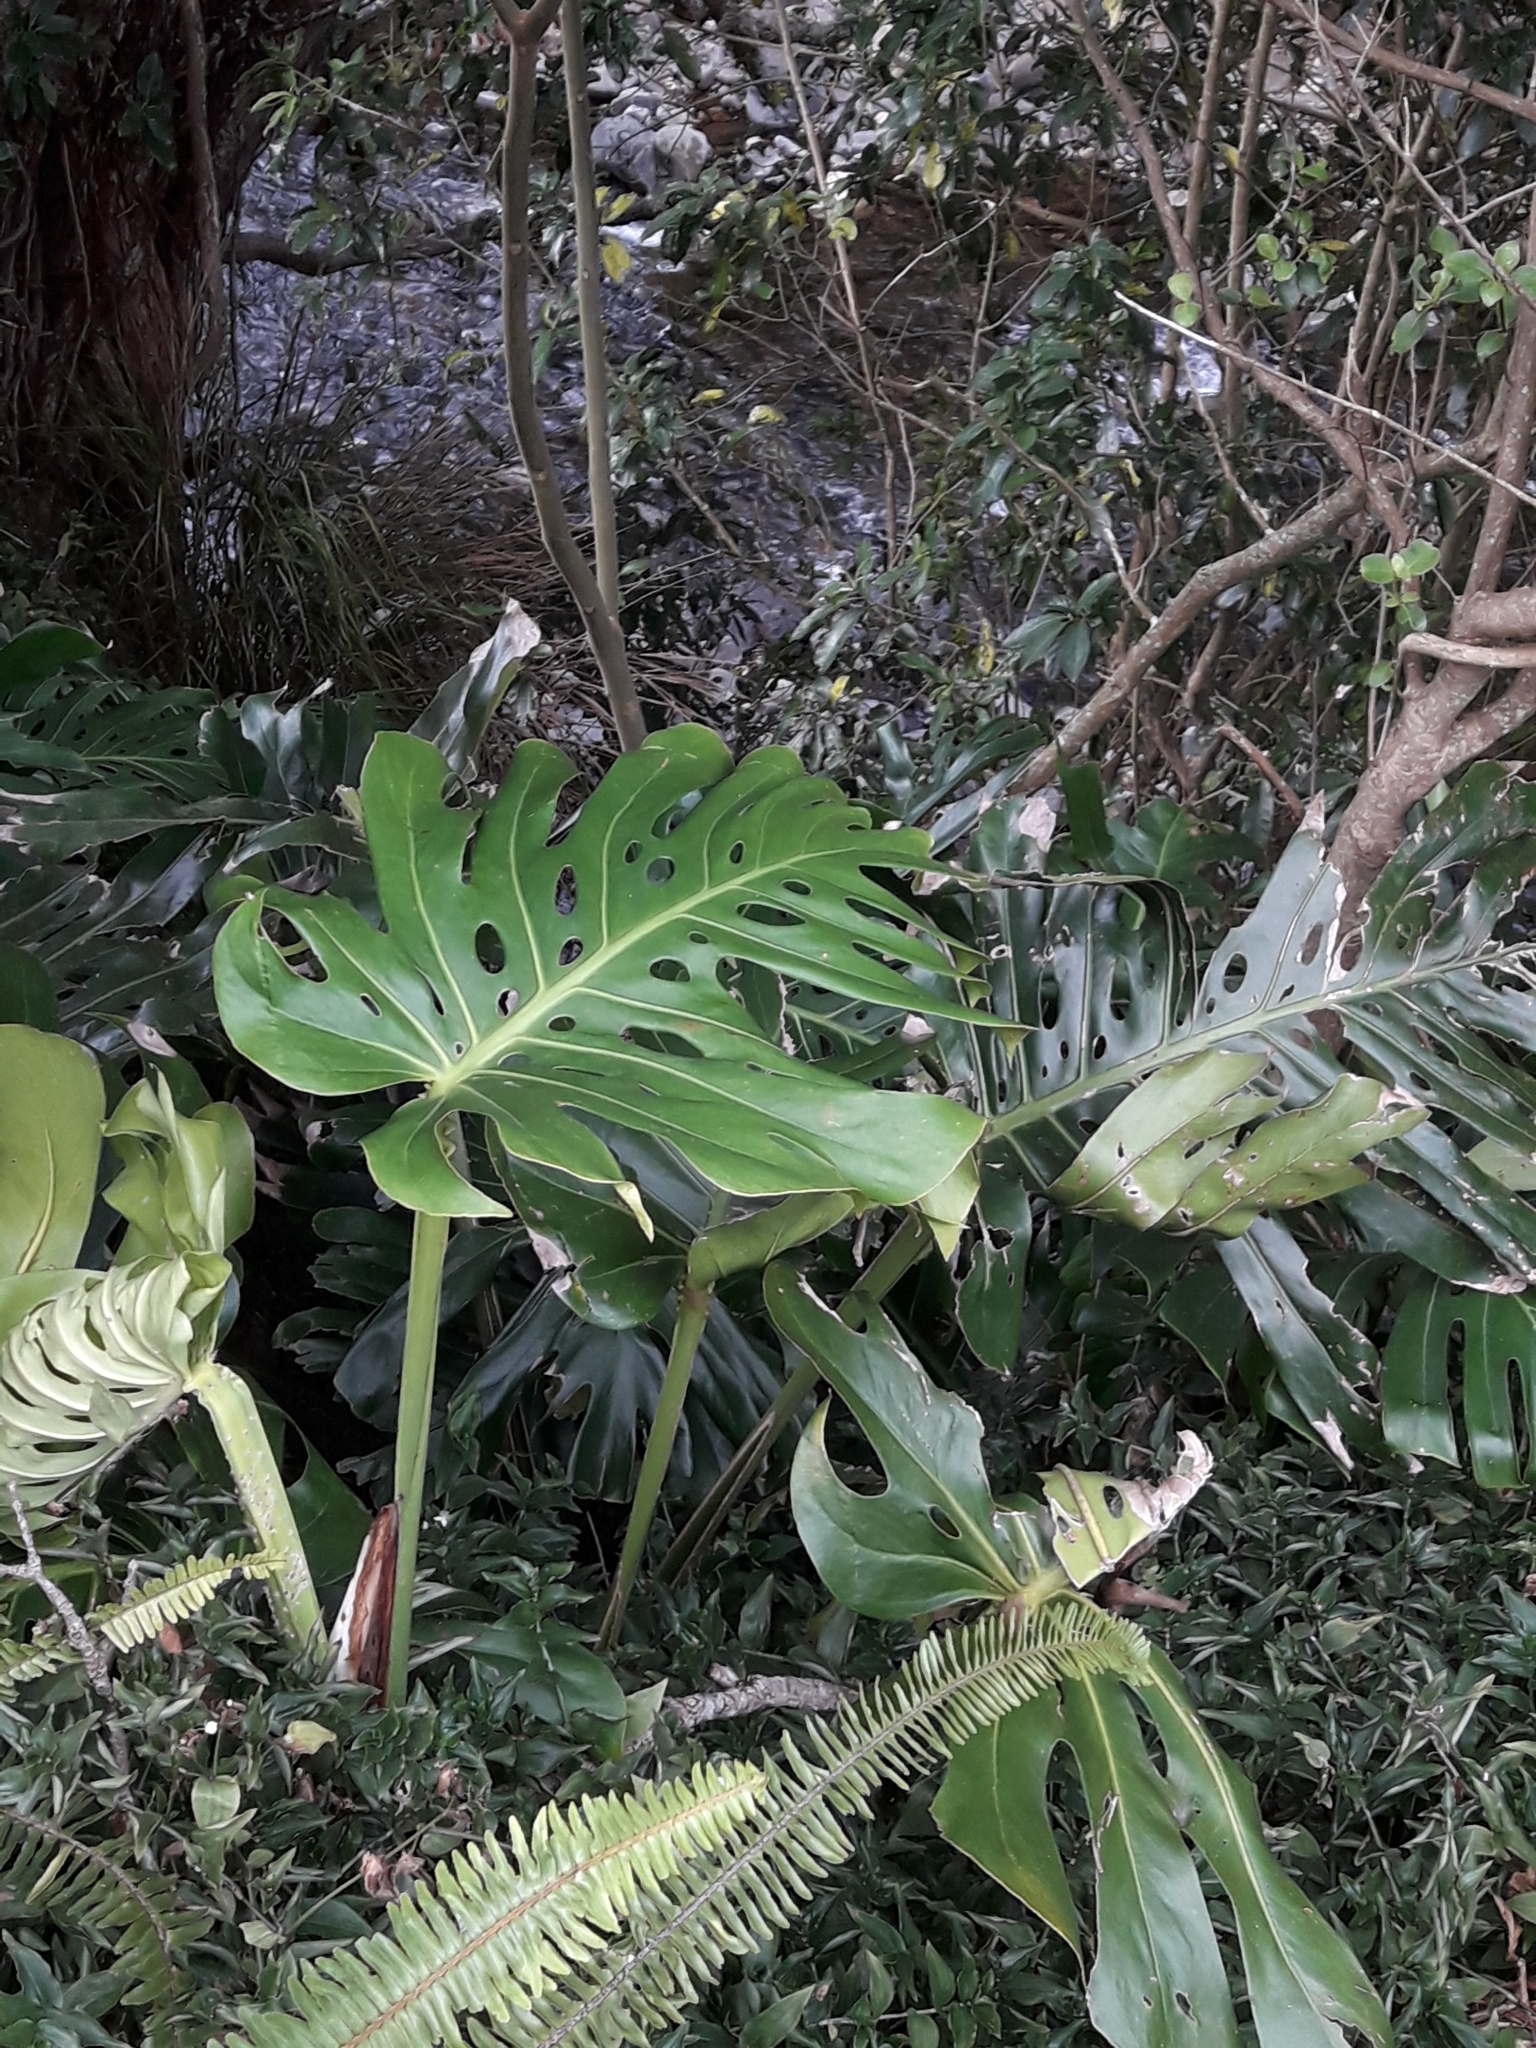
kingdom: Plantae
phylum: Tracheophyta
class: Liliopsida
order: Alismatales
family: Araceae
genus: Monstera
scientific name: Monstera deliciosa
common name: Cut-leaf-philodendron
